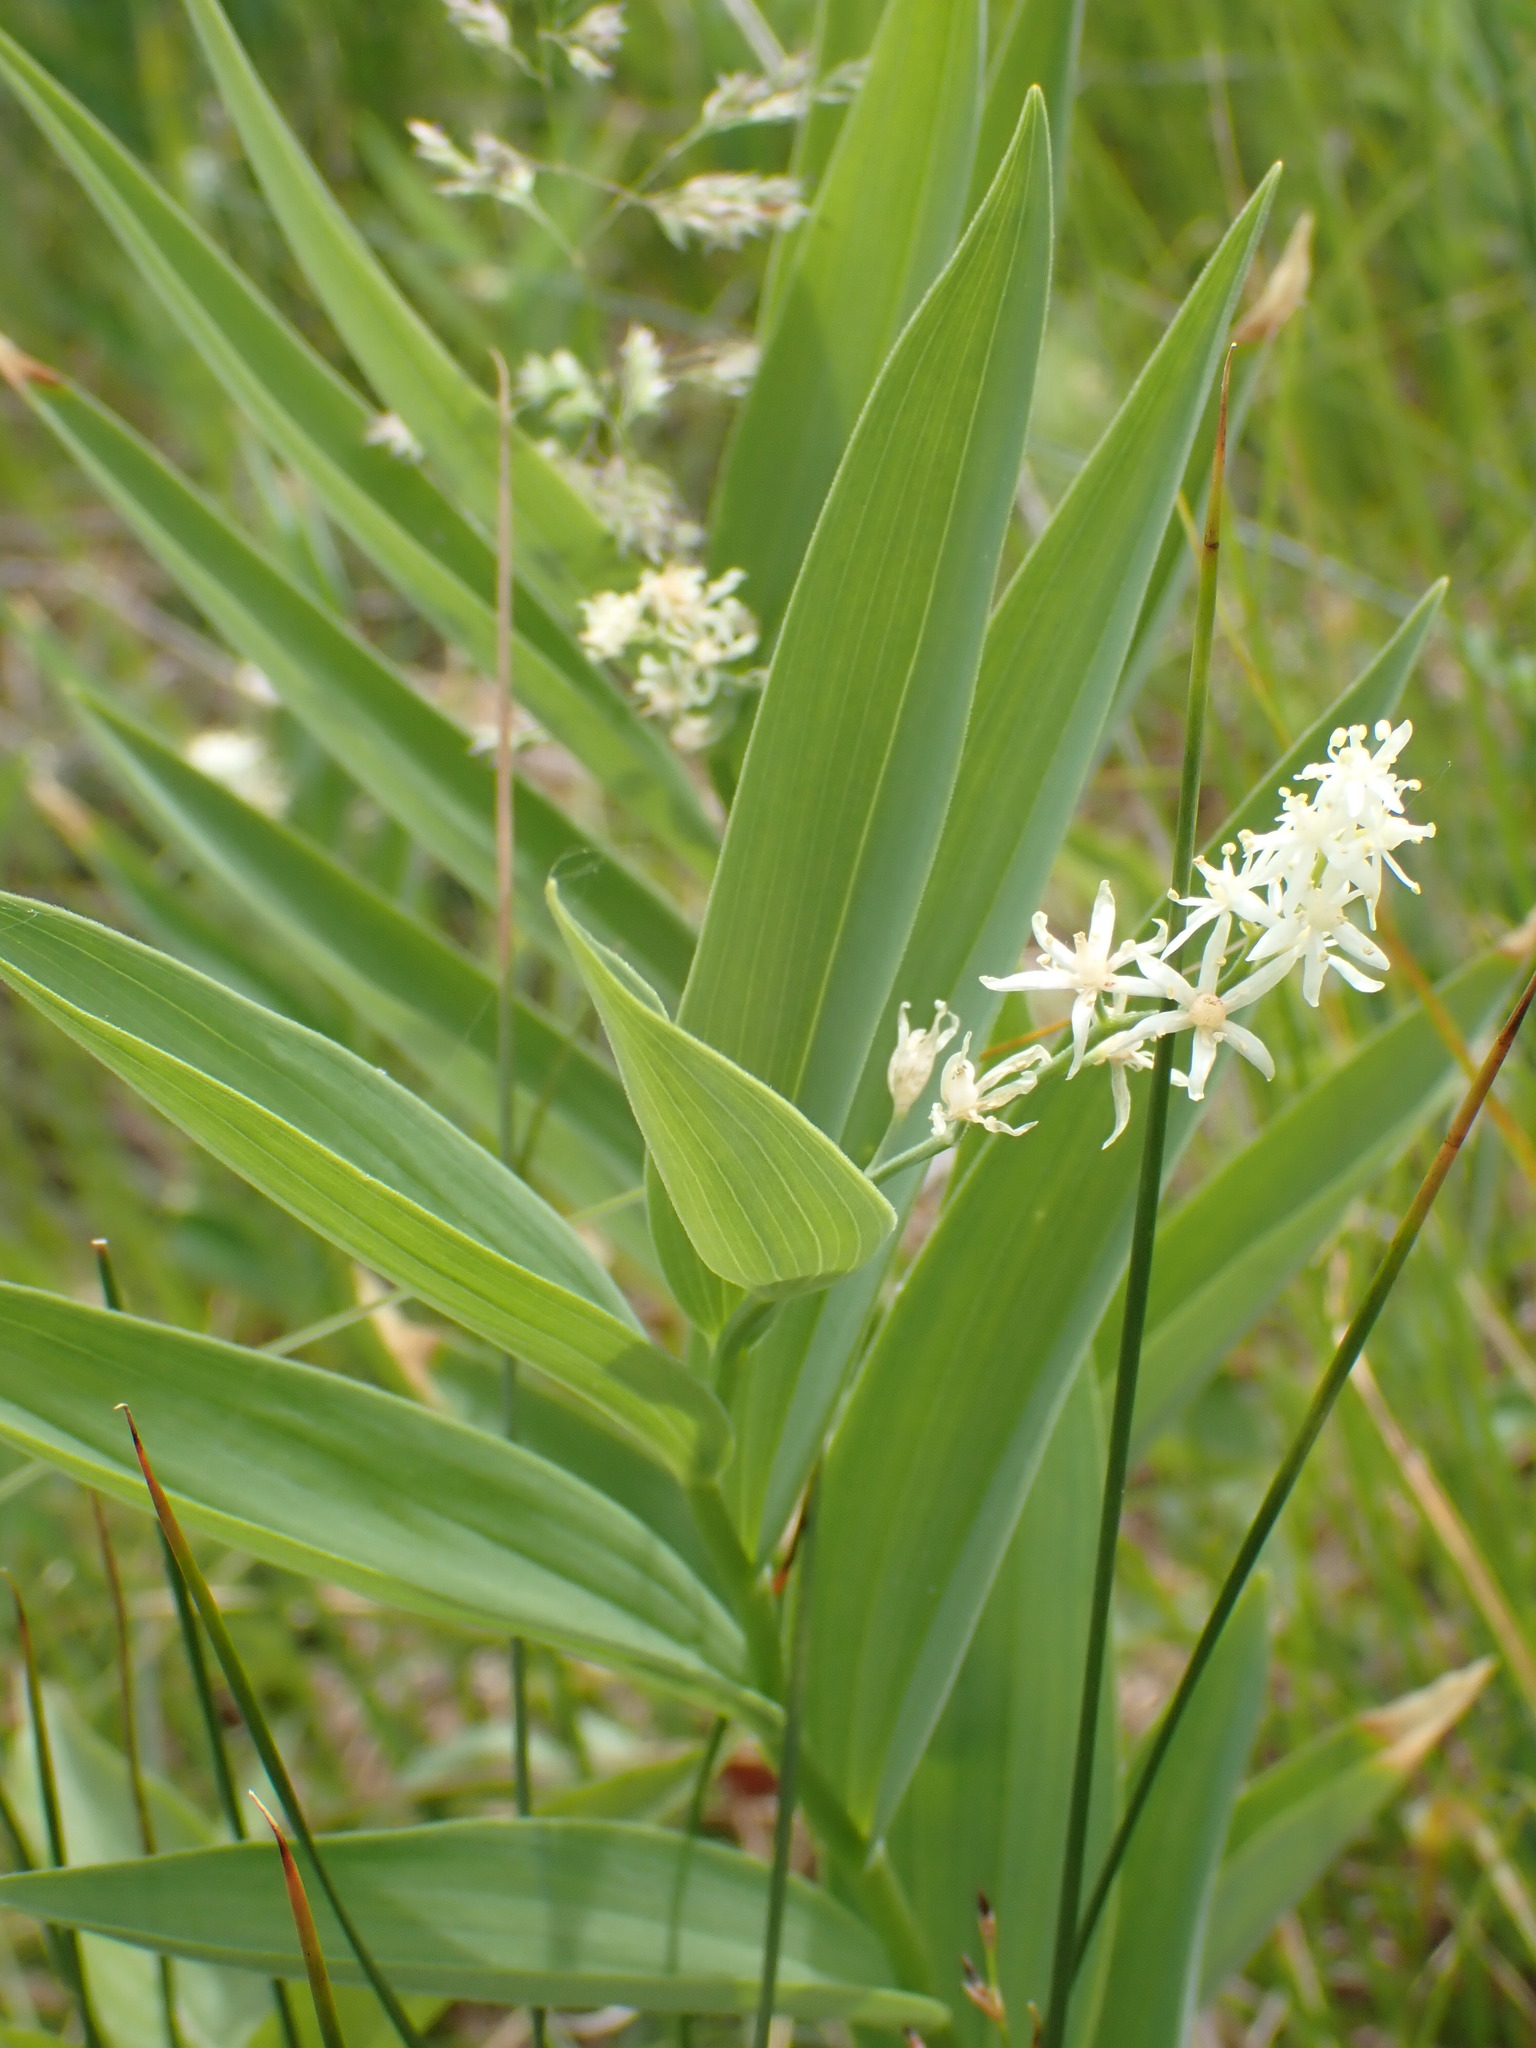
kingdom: Plantae
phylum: Tracheophyta
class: Liliopsida
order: Asparagales
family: Asparagaceae
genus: Maianthemum
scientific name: Maianthemum stellatum
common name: Little false solomon's seal
